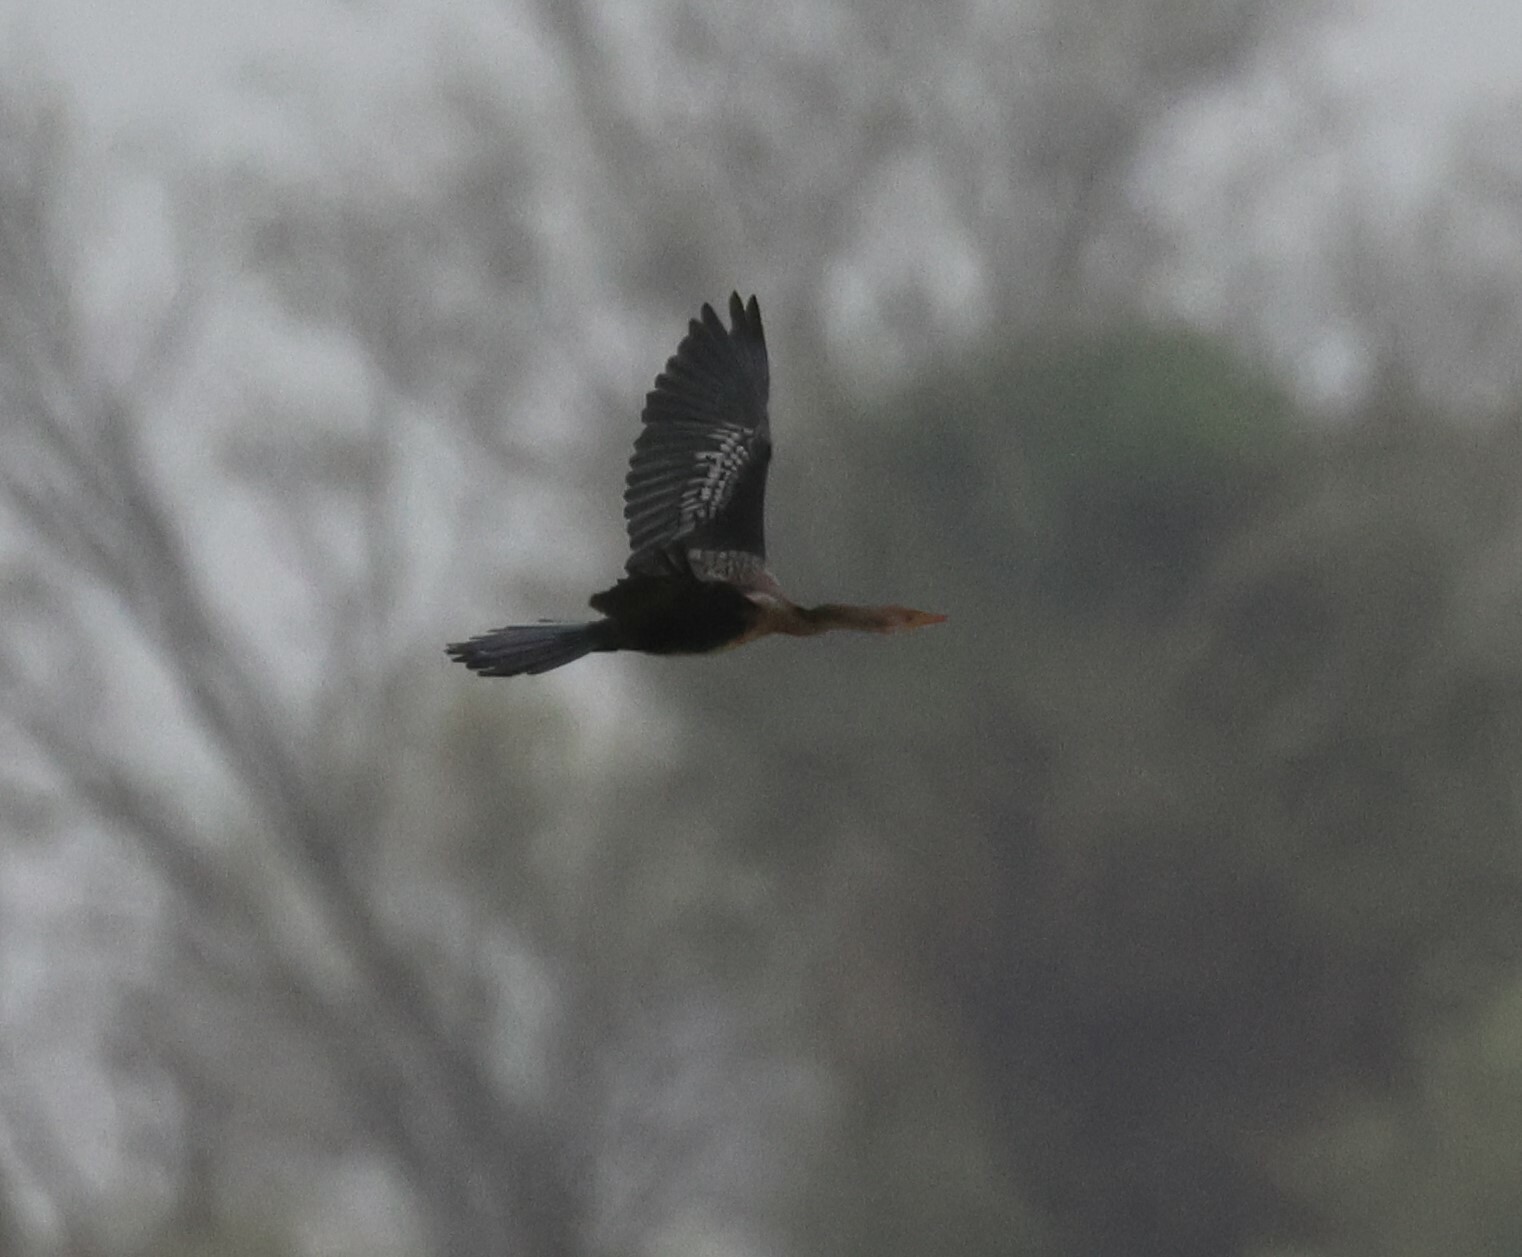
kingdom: Animalia
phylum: Chordata
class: Aves
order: Suliformes
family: Phalacrocoracidae
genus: Microcarbo
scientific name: Microcarbo africanus
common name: Long-tailed cormorant
